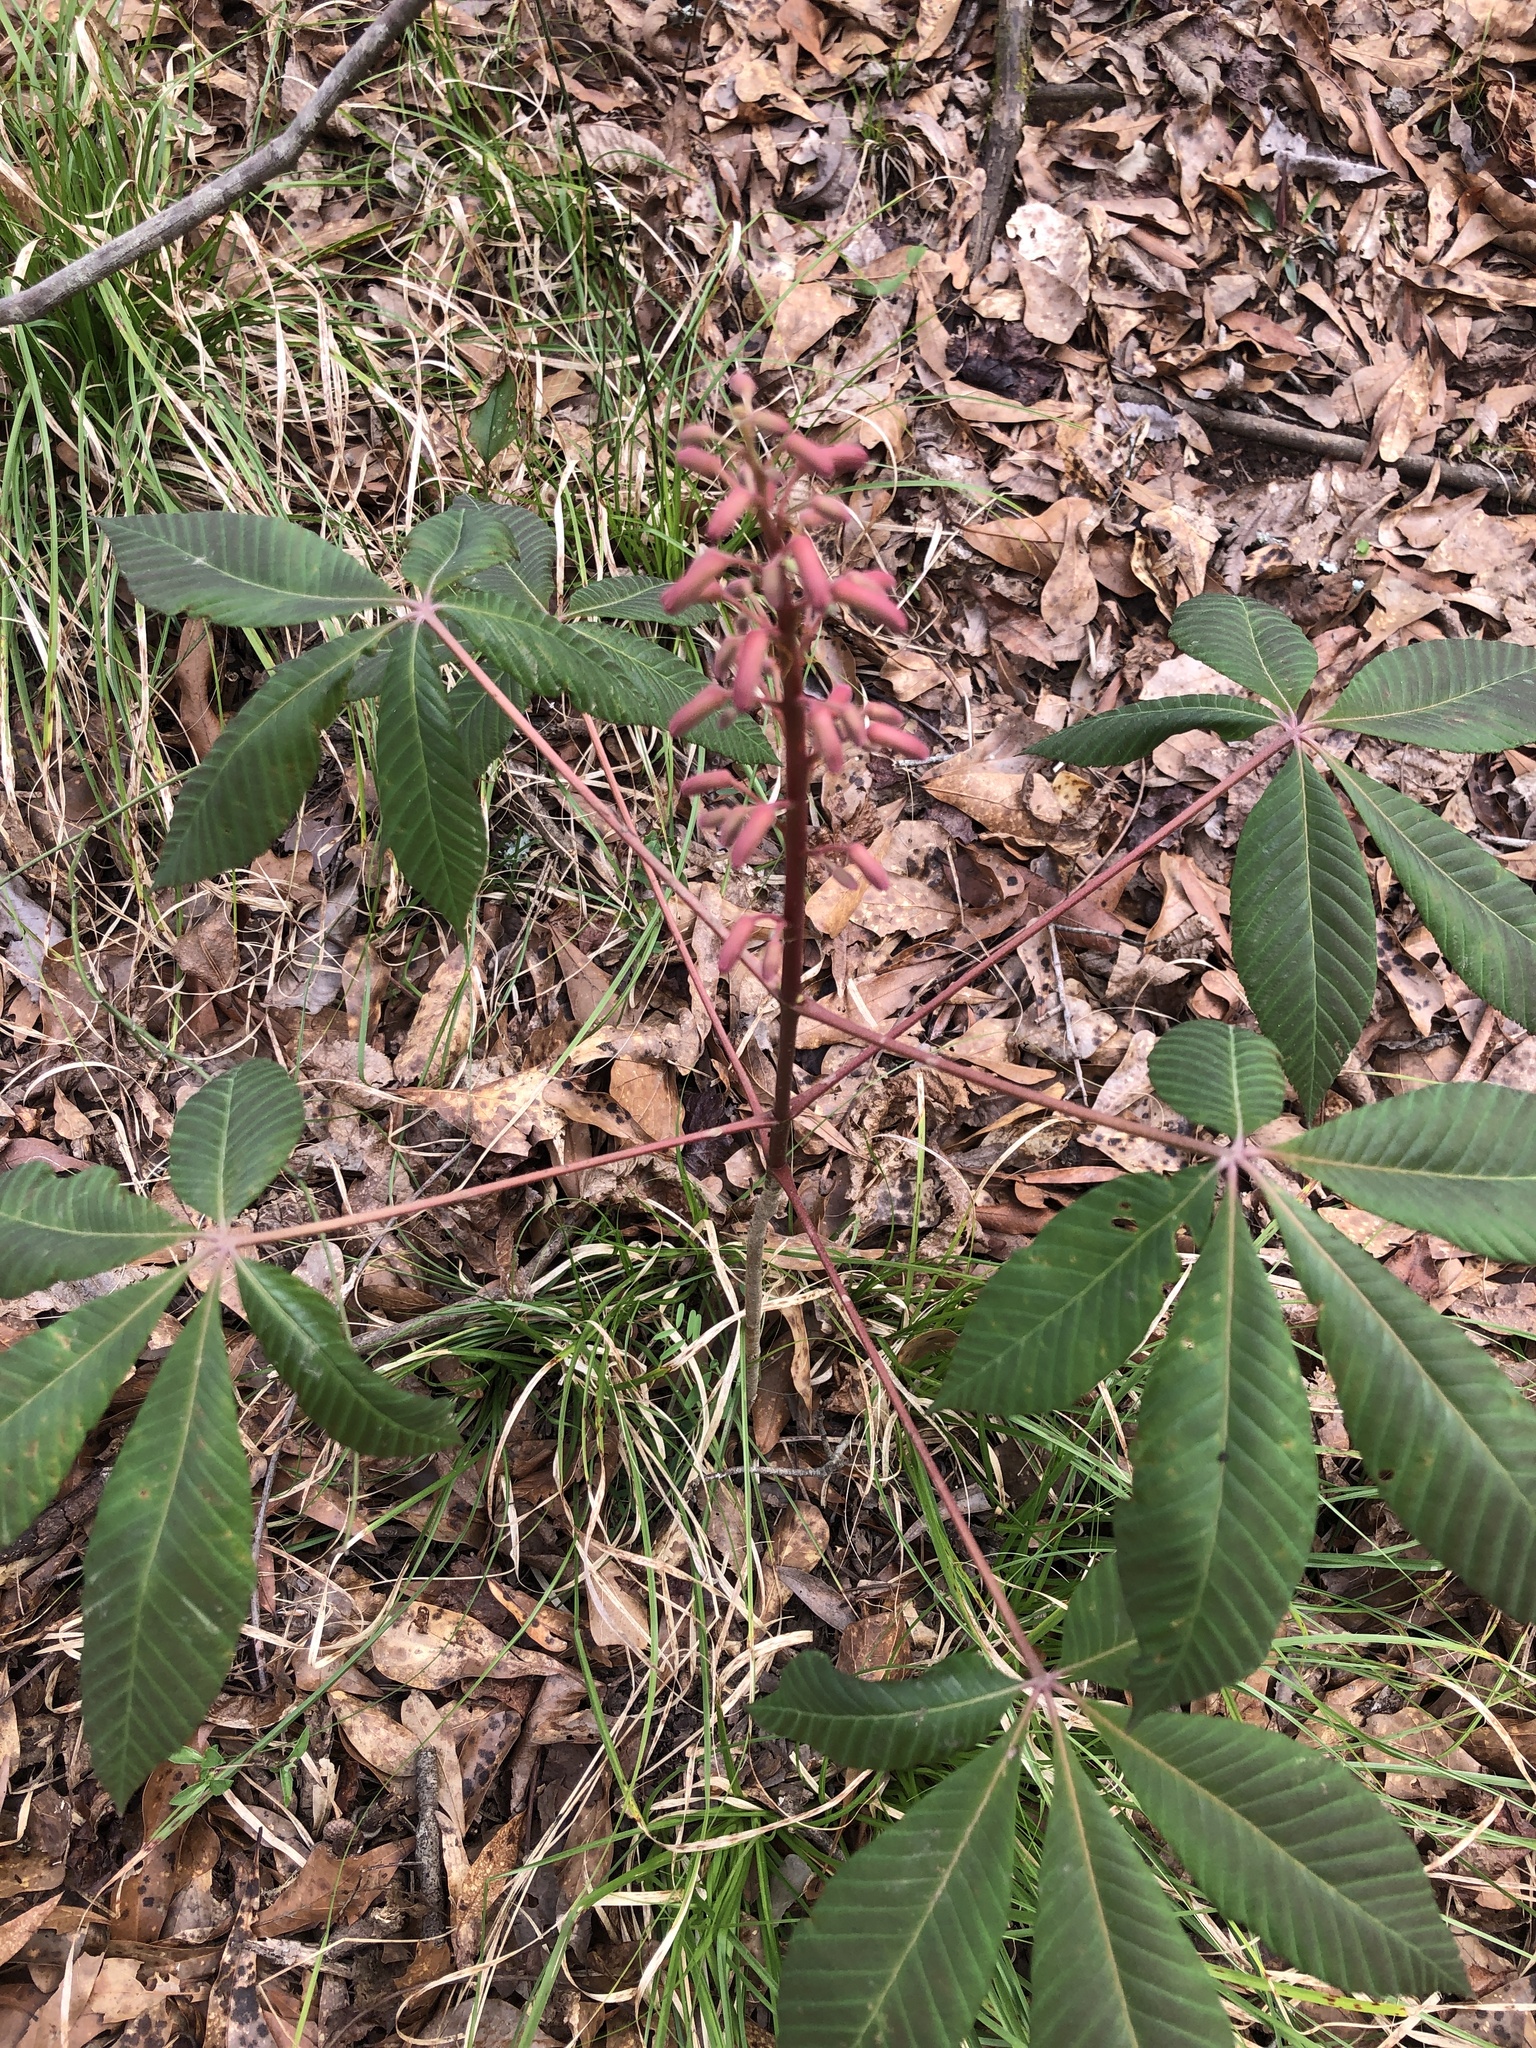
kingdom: Plantae
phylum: Tracheophyta
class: Magnoliopsida
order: Sapindales
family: Sapindaceae
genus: Aesculus
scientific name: Aesculus pavia
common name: Red buckeye
